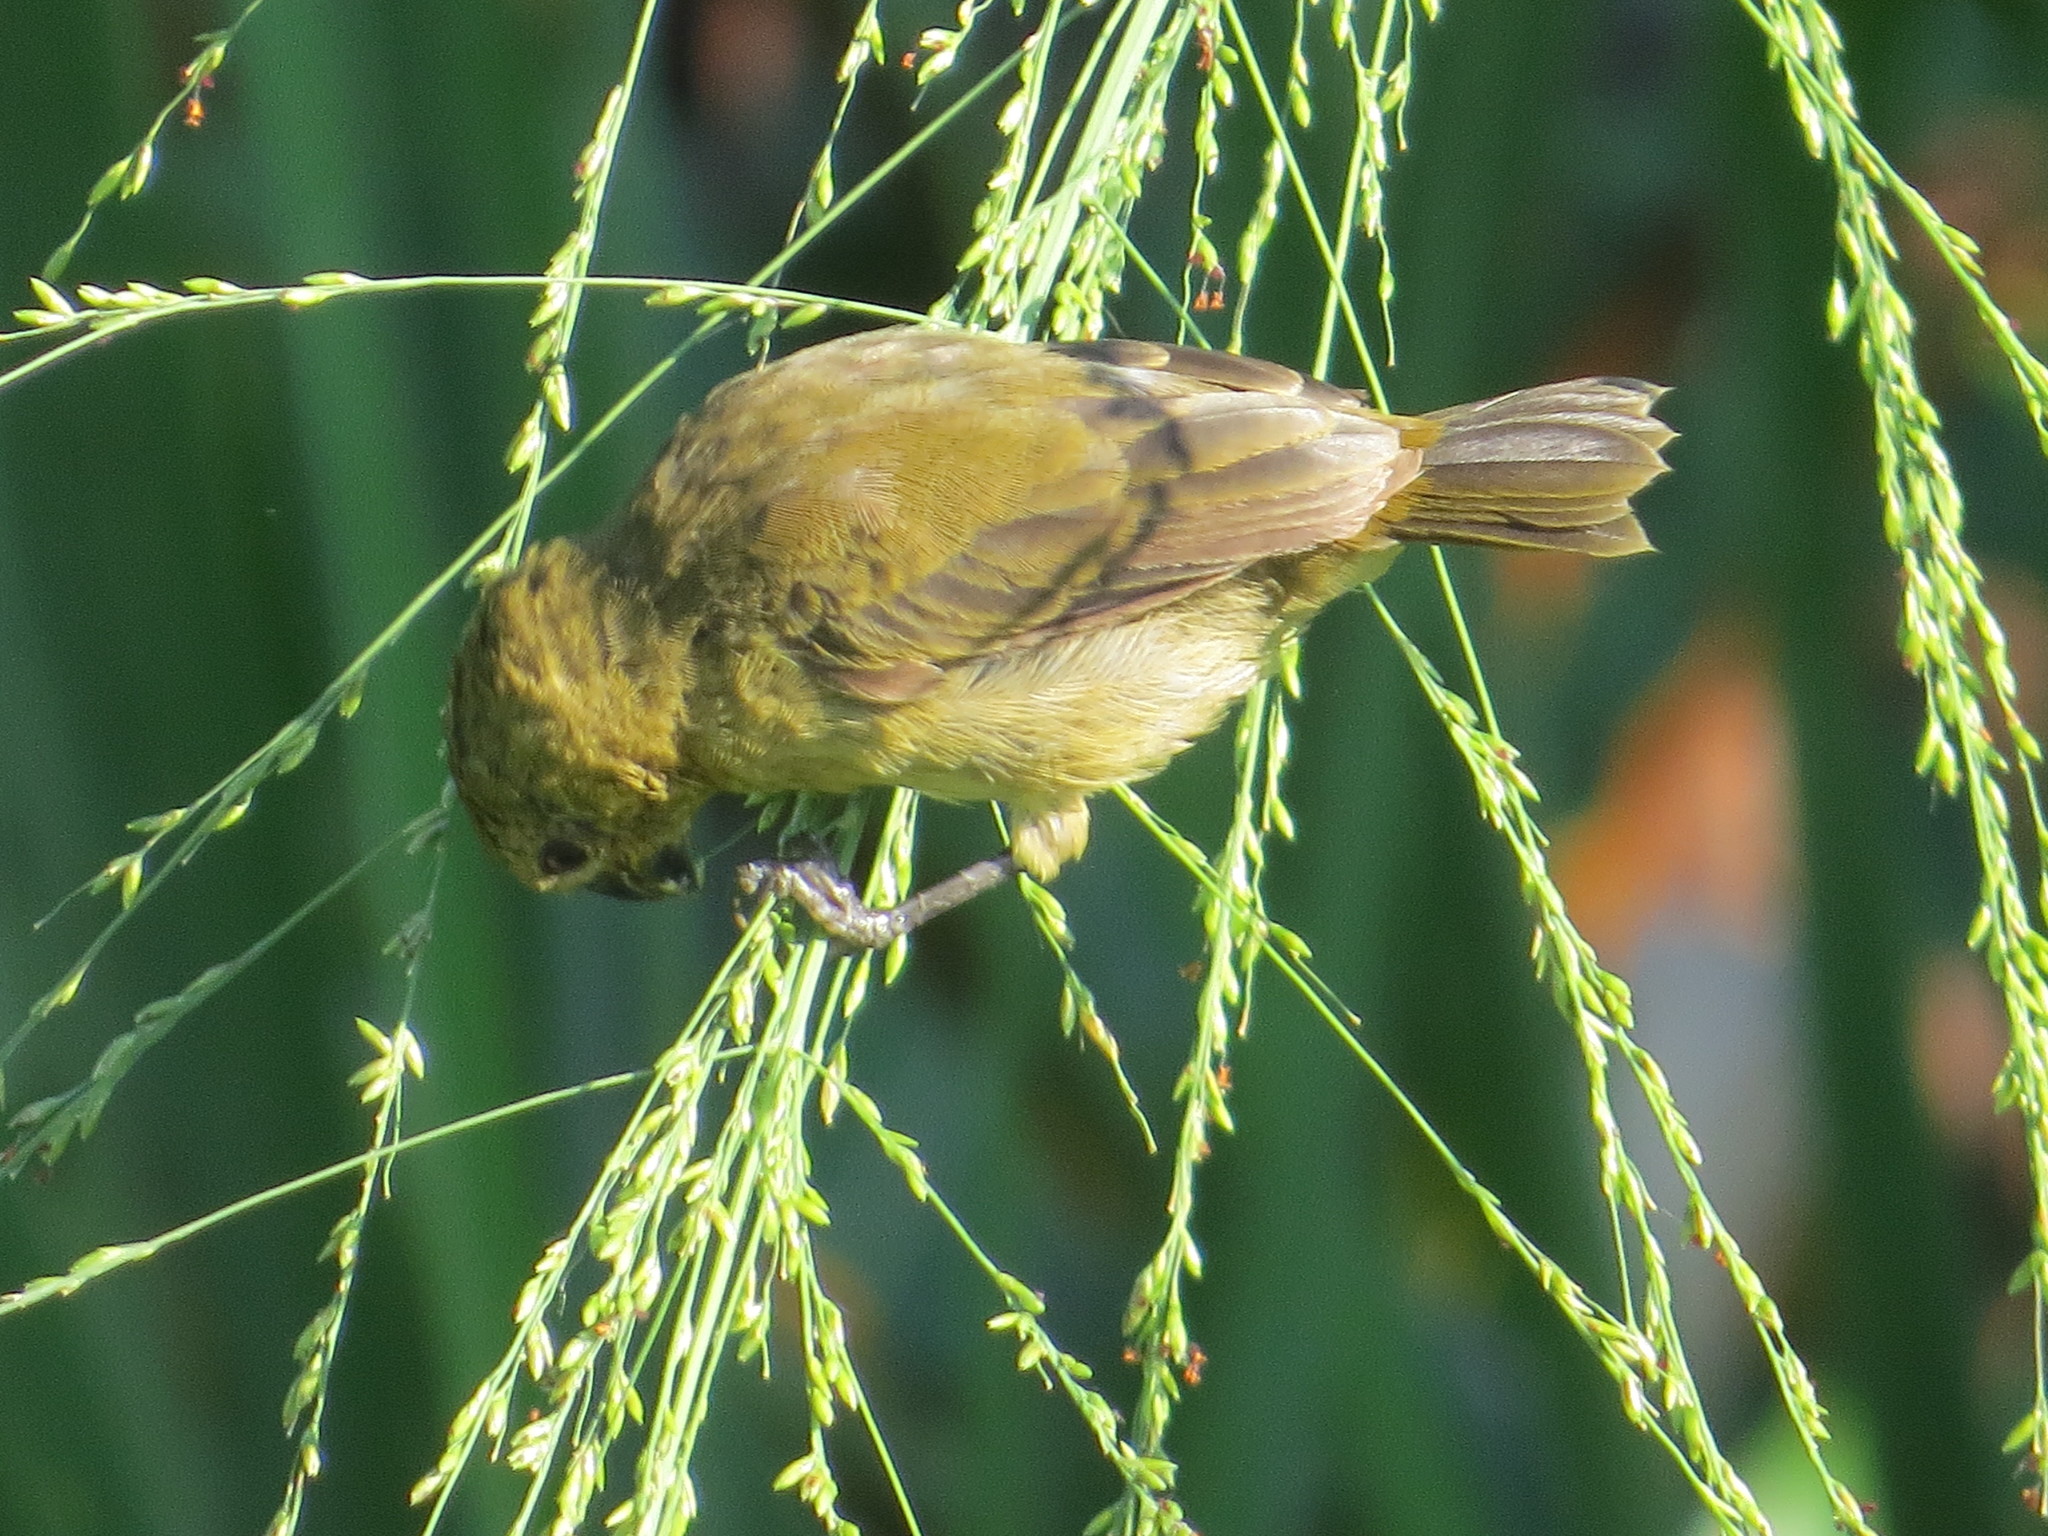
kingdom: Animalia
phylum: Chordata
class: Aves
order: Passeriformes
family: Thraupidae
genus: Sporophila
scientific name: Sporophila corvina
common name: Variable seedeater
